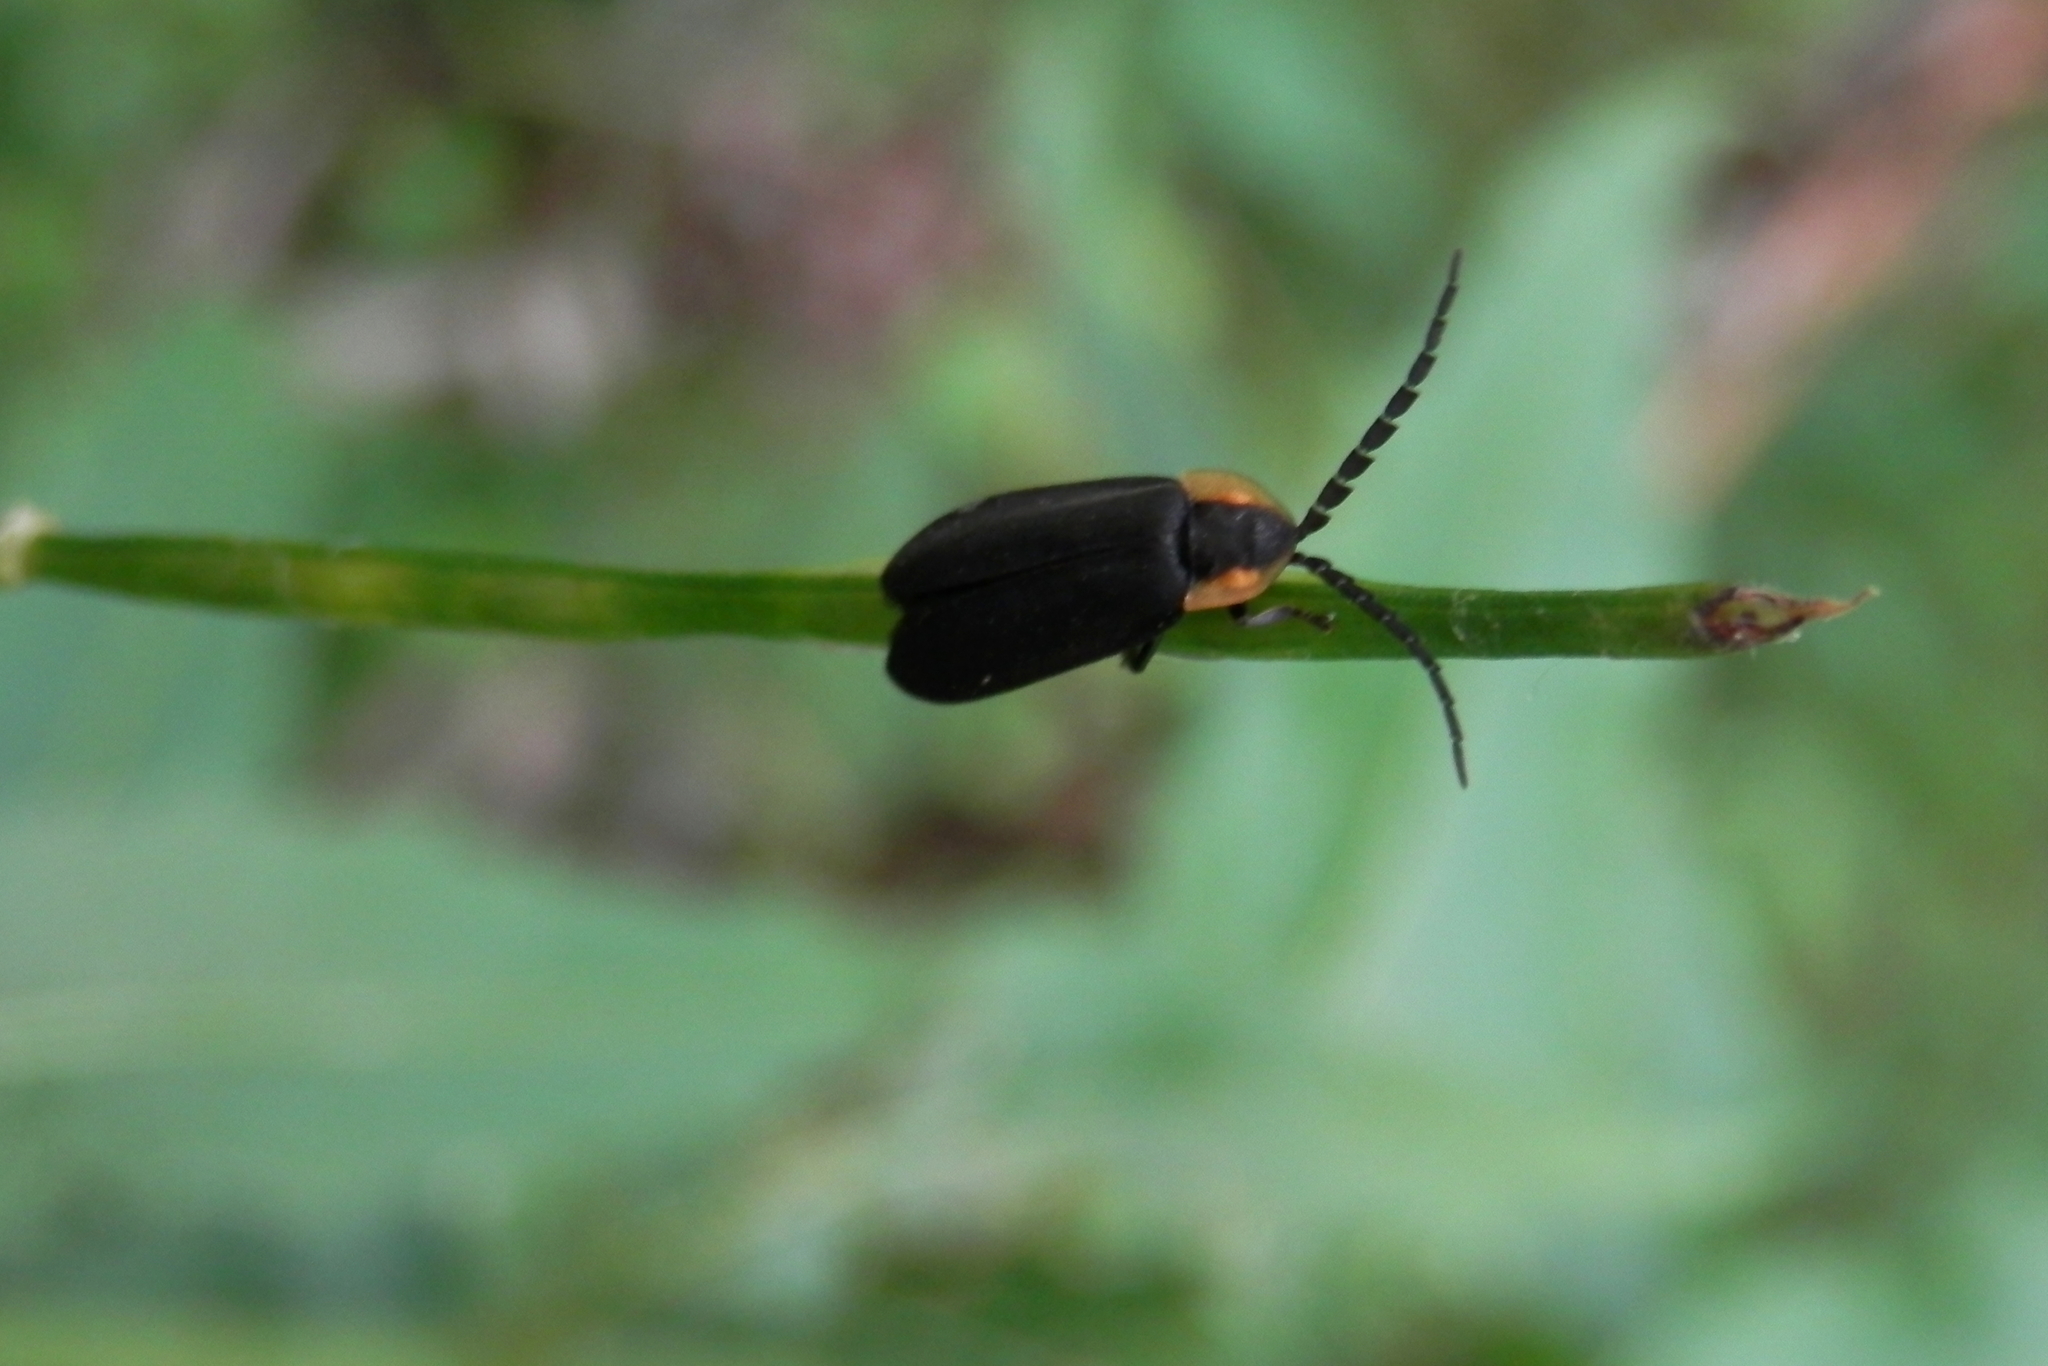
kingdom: Animalia
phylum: Arthropoda
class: Insecta
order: Coleoptera
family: Lampyridae
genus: Lucidota
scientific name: Lucidota atra
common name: Black firefly
